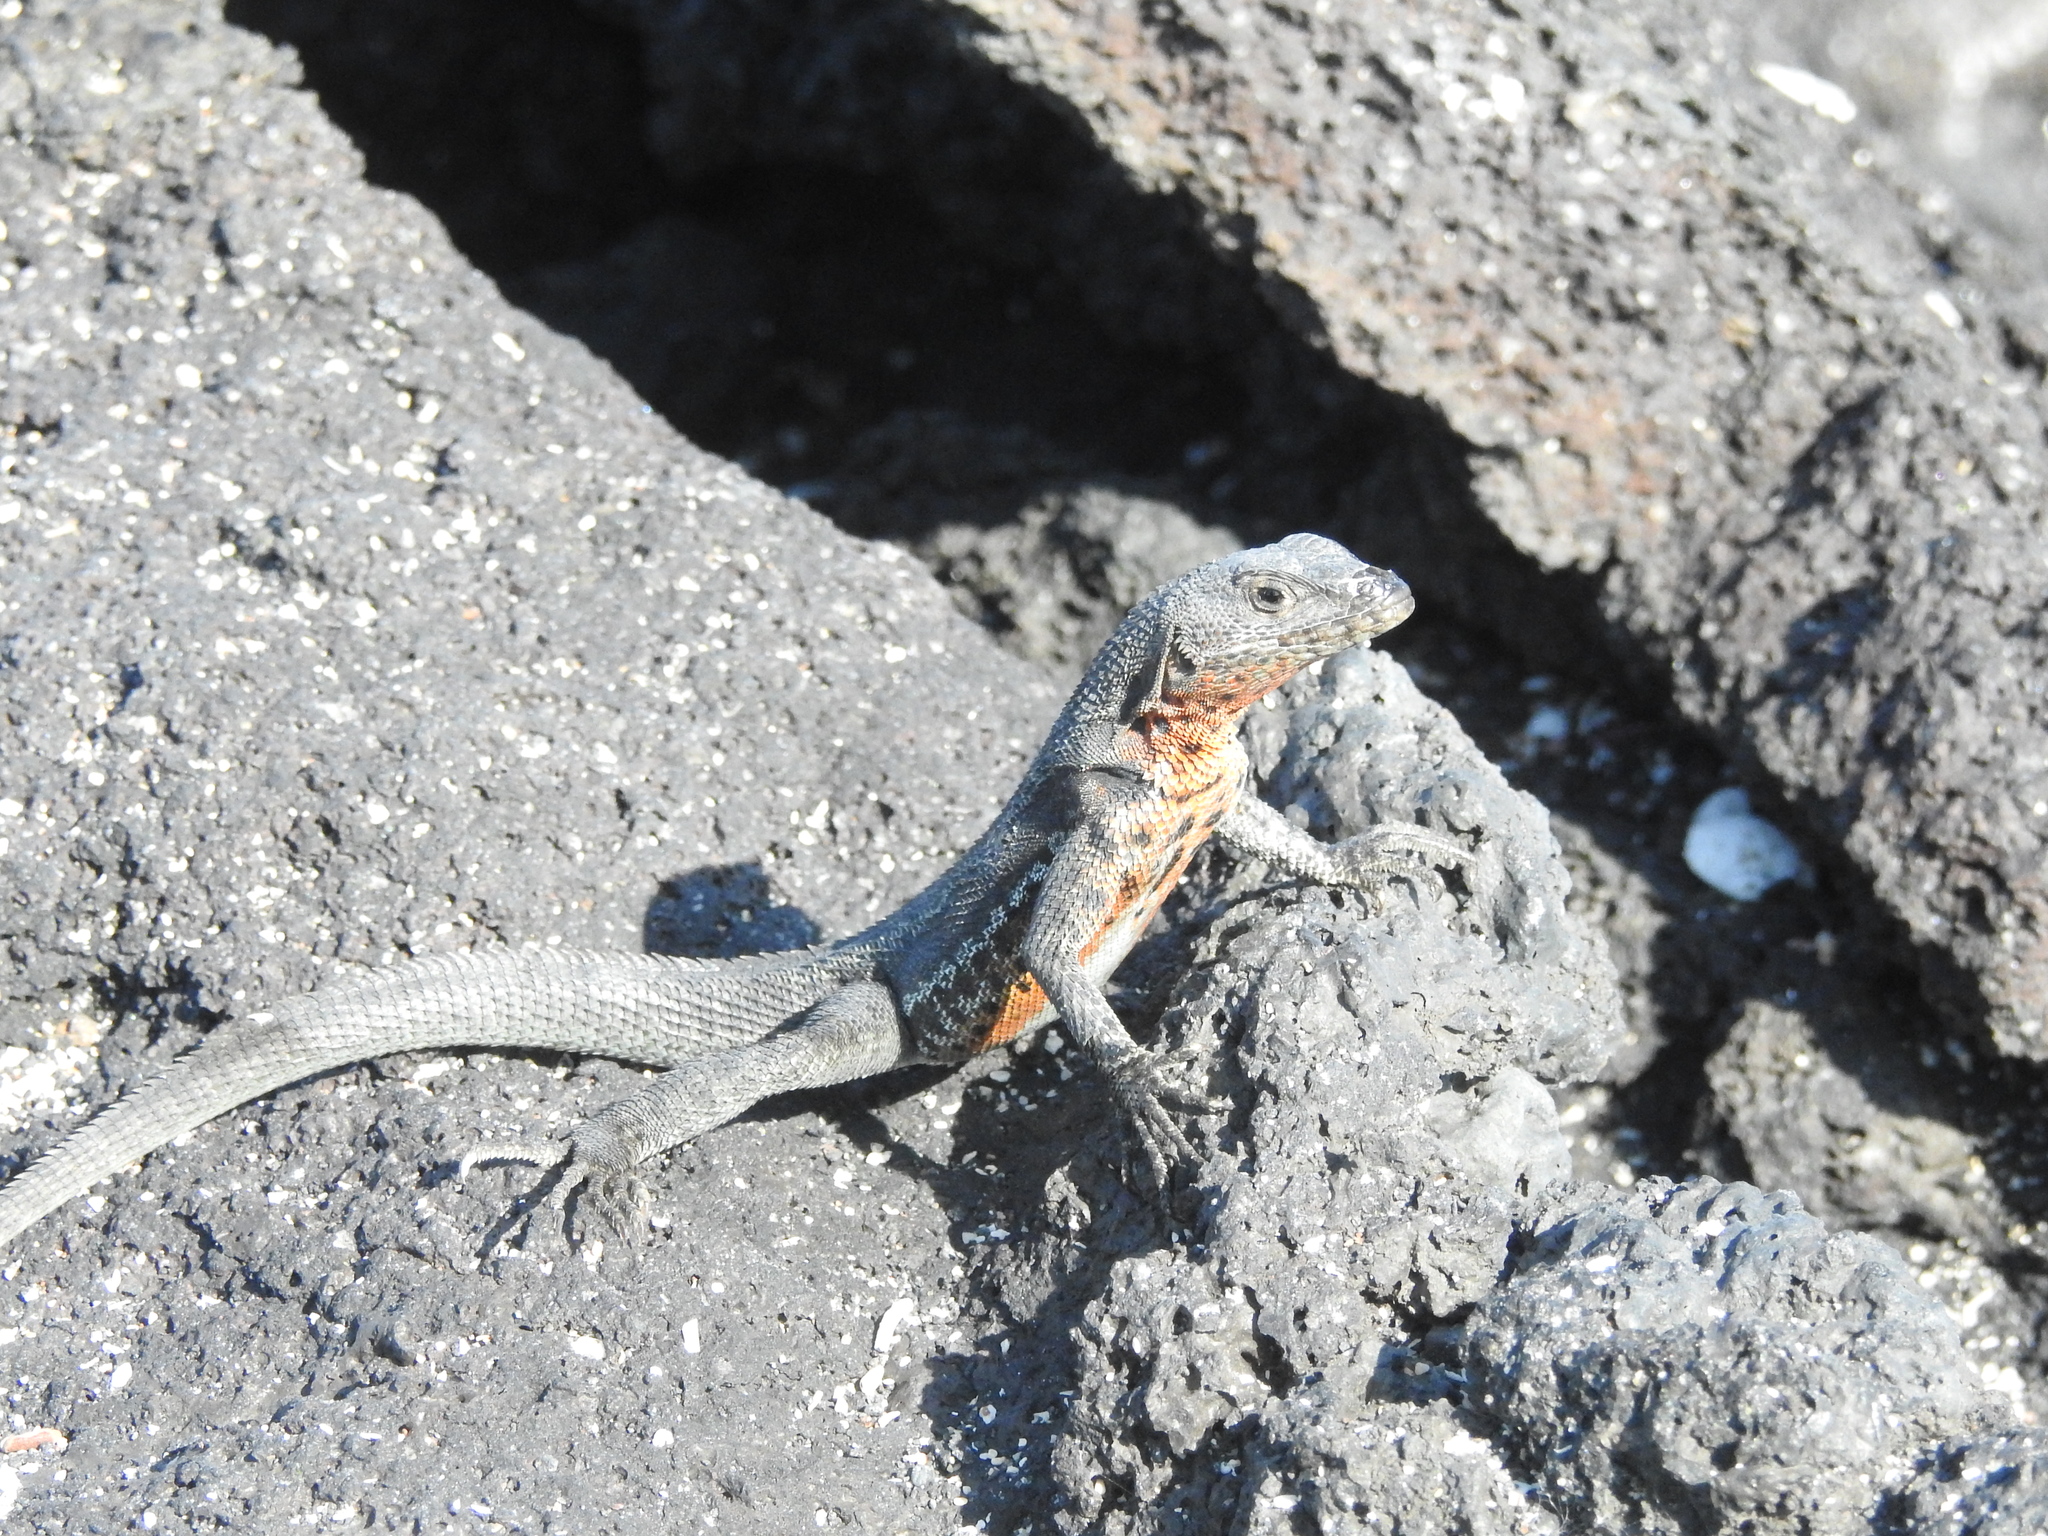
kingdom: Animalia
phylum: Chordata
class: Squamata
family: Tropiduridae
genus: Microlophus
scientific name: Microlophus albemarlensis
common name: Galapagos lava lizard
